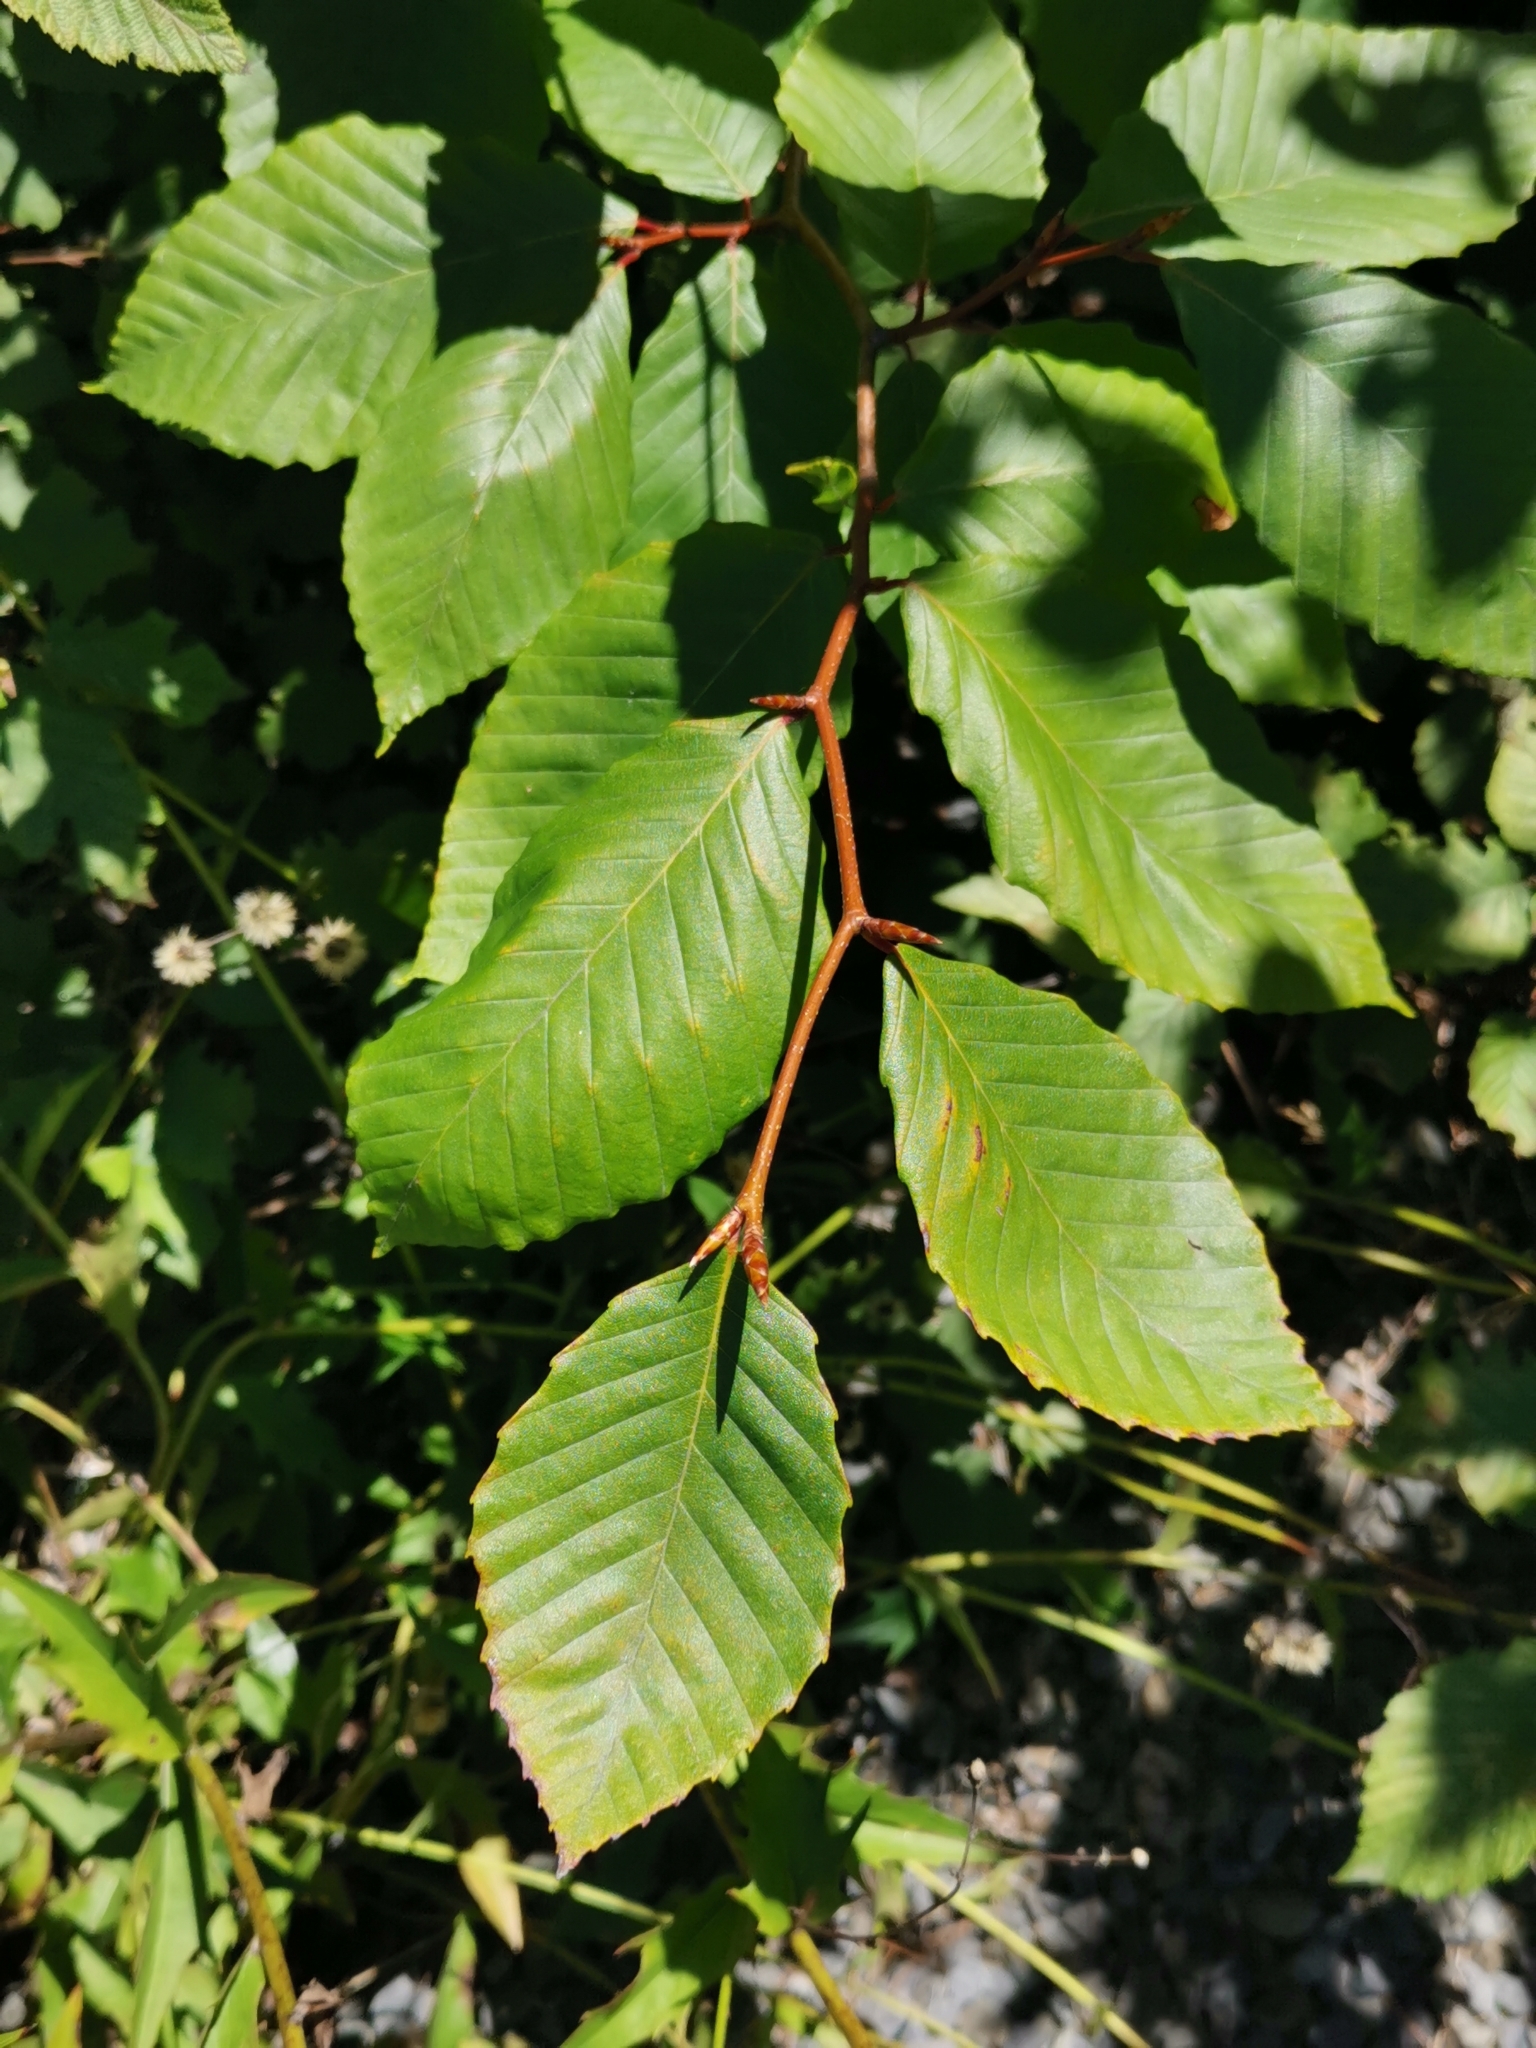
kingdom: Plantae
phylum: Tracheophyta
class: Magnoliopsida
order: Fagales
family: Fagaceae
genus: Fagus
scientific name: Fagus grandifolia
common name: American beech
